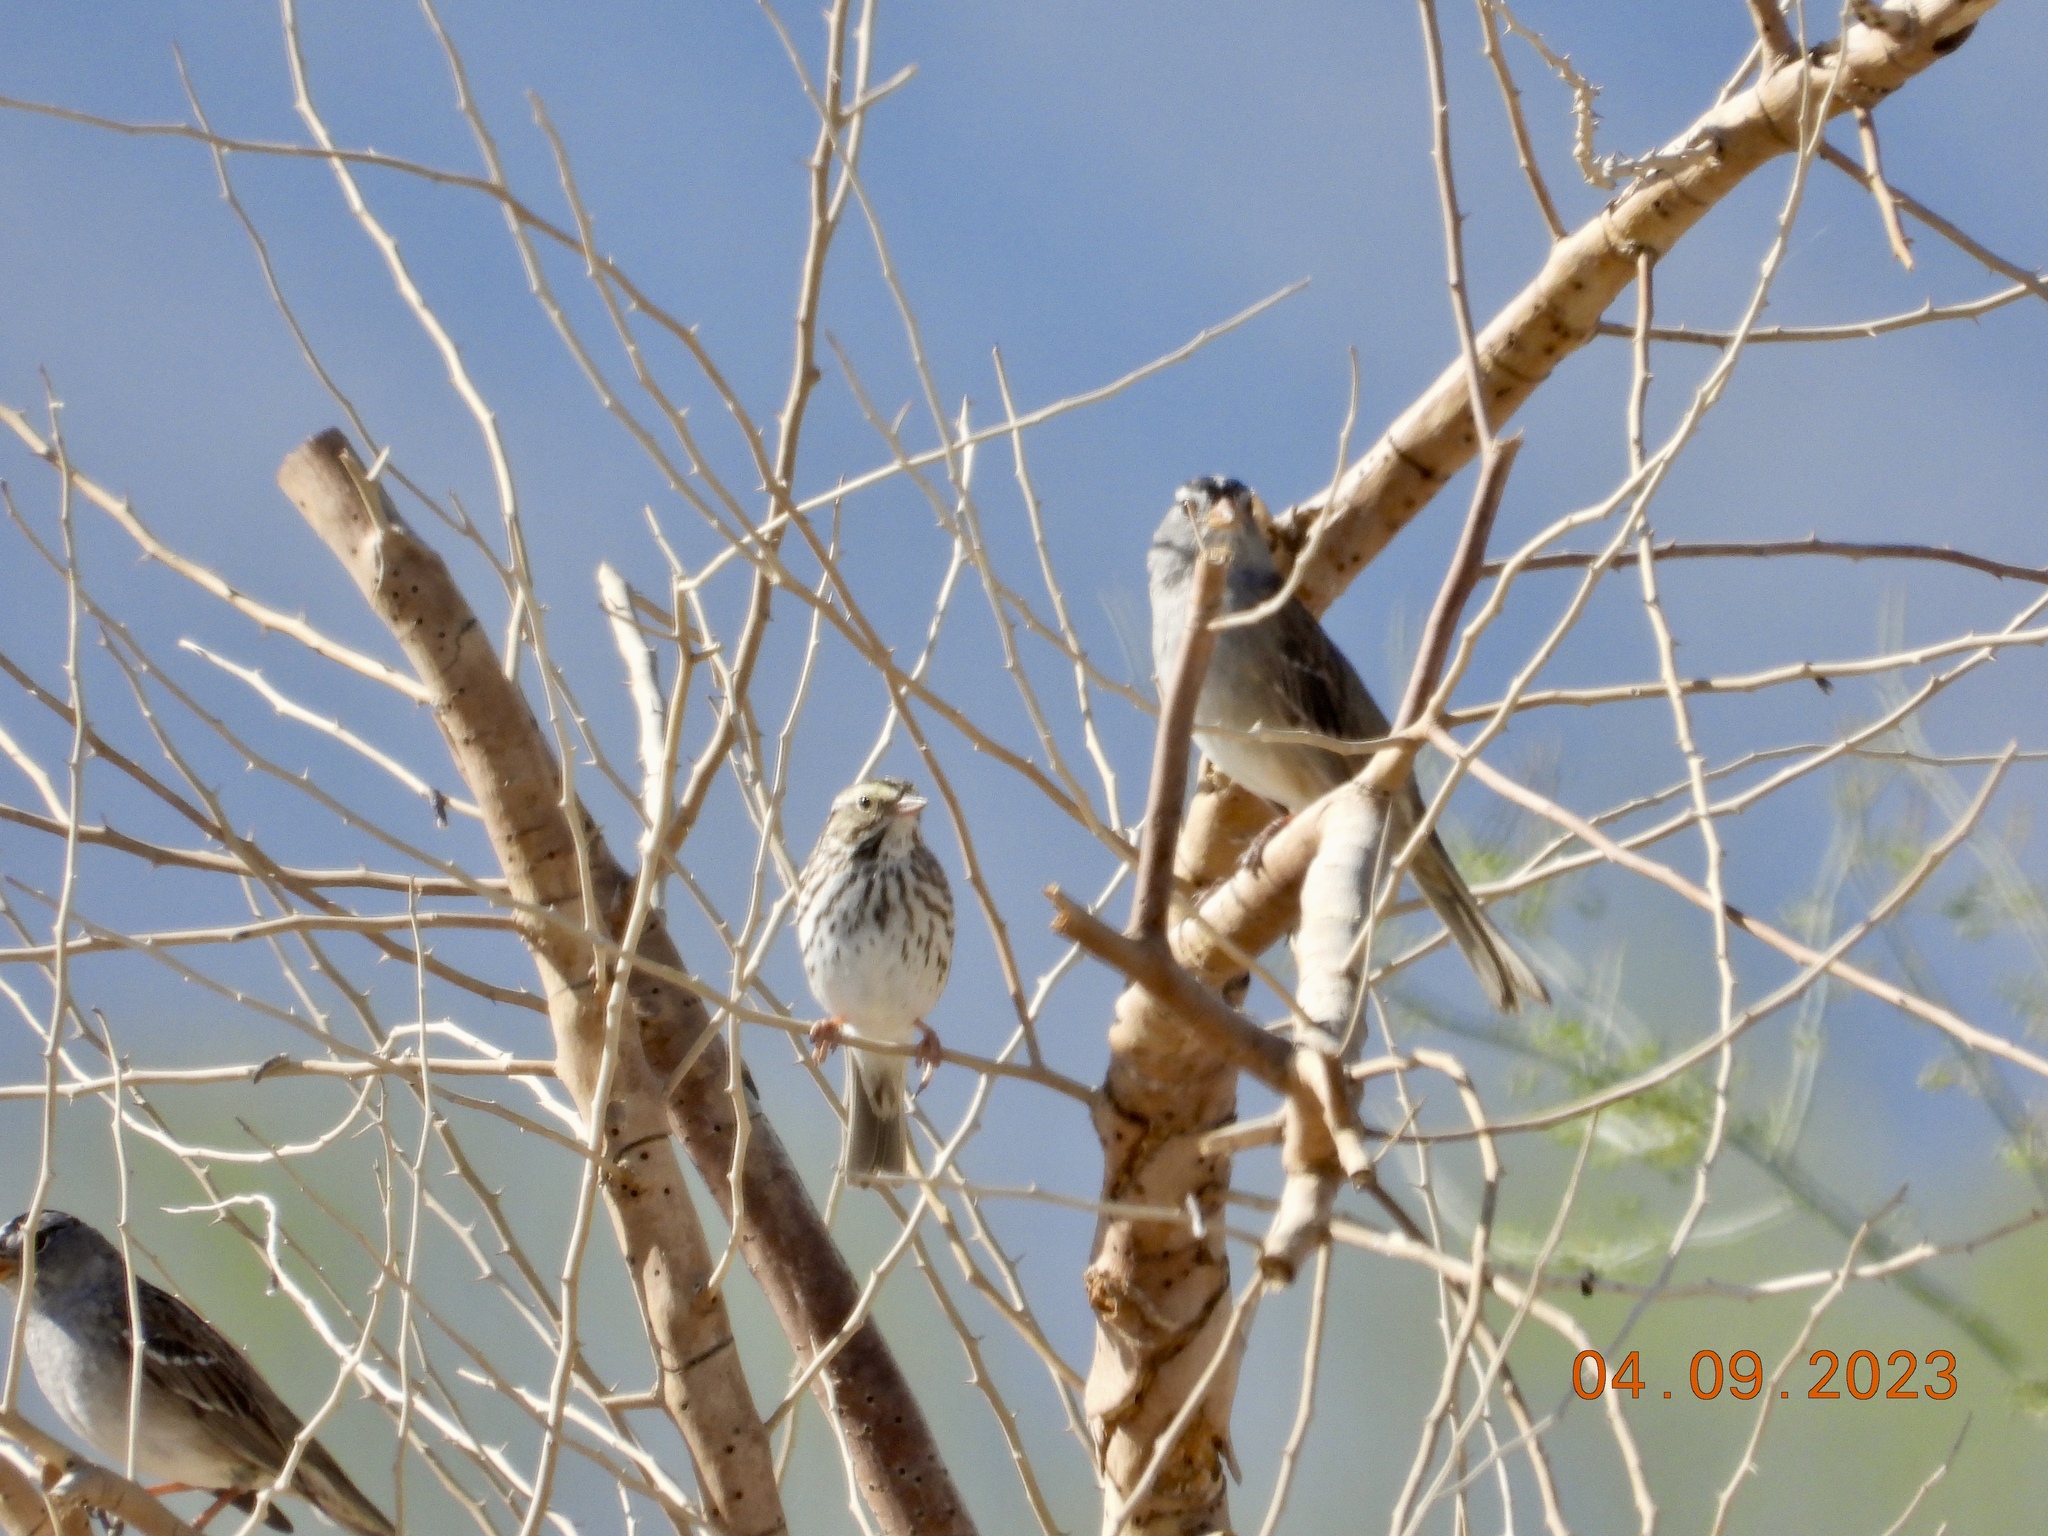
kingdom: Animalia
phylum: Chordata
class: Aves
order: Passeriformes
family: Passerellidae
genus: Passerculus
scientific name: Passerculus sandwichensis
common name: Savannah sparrow
